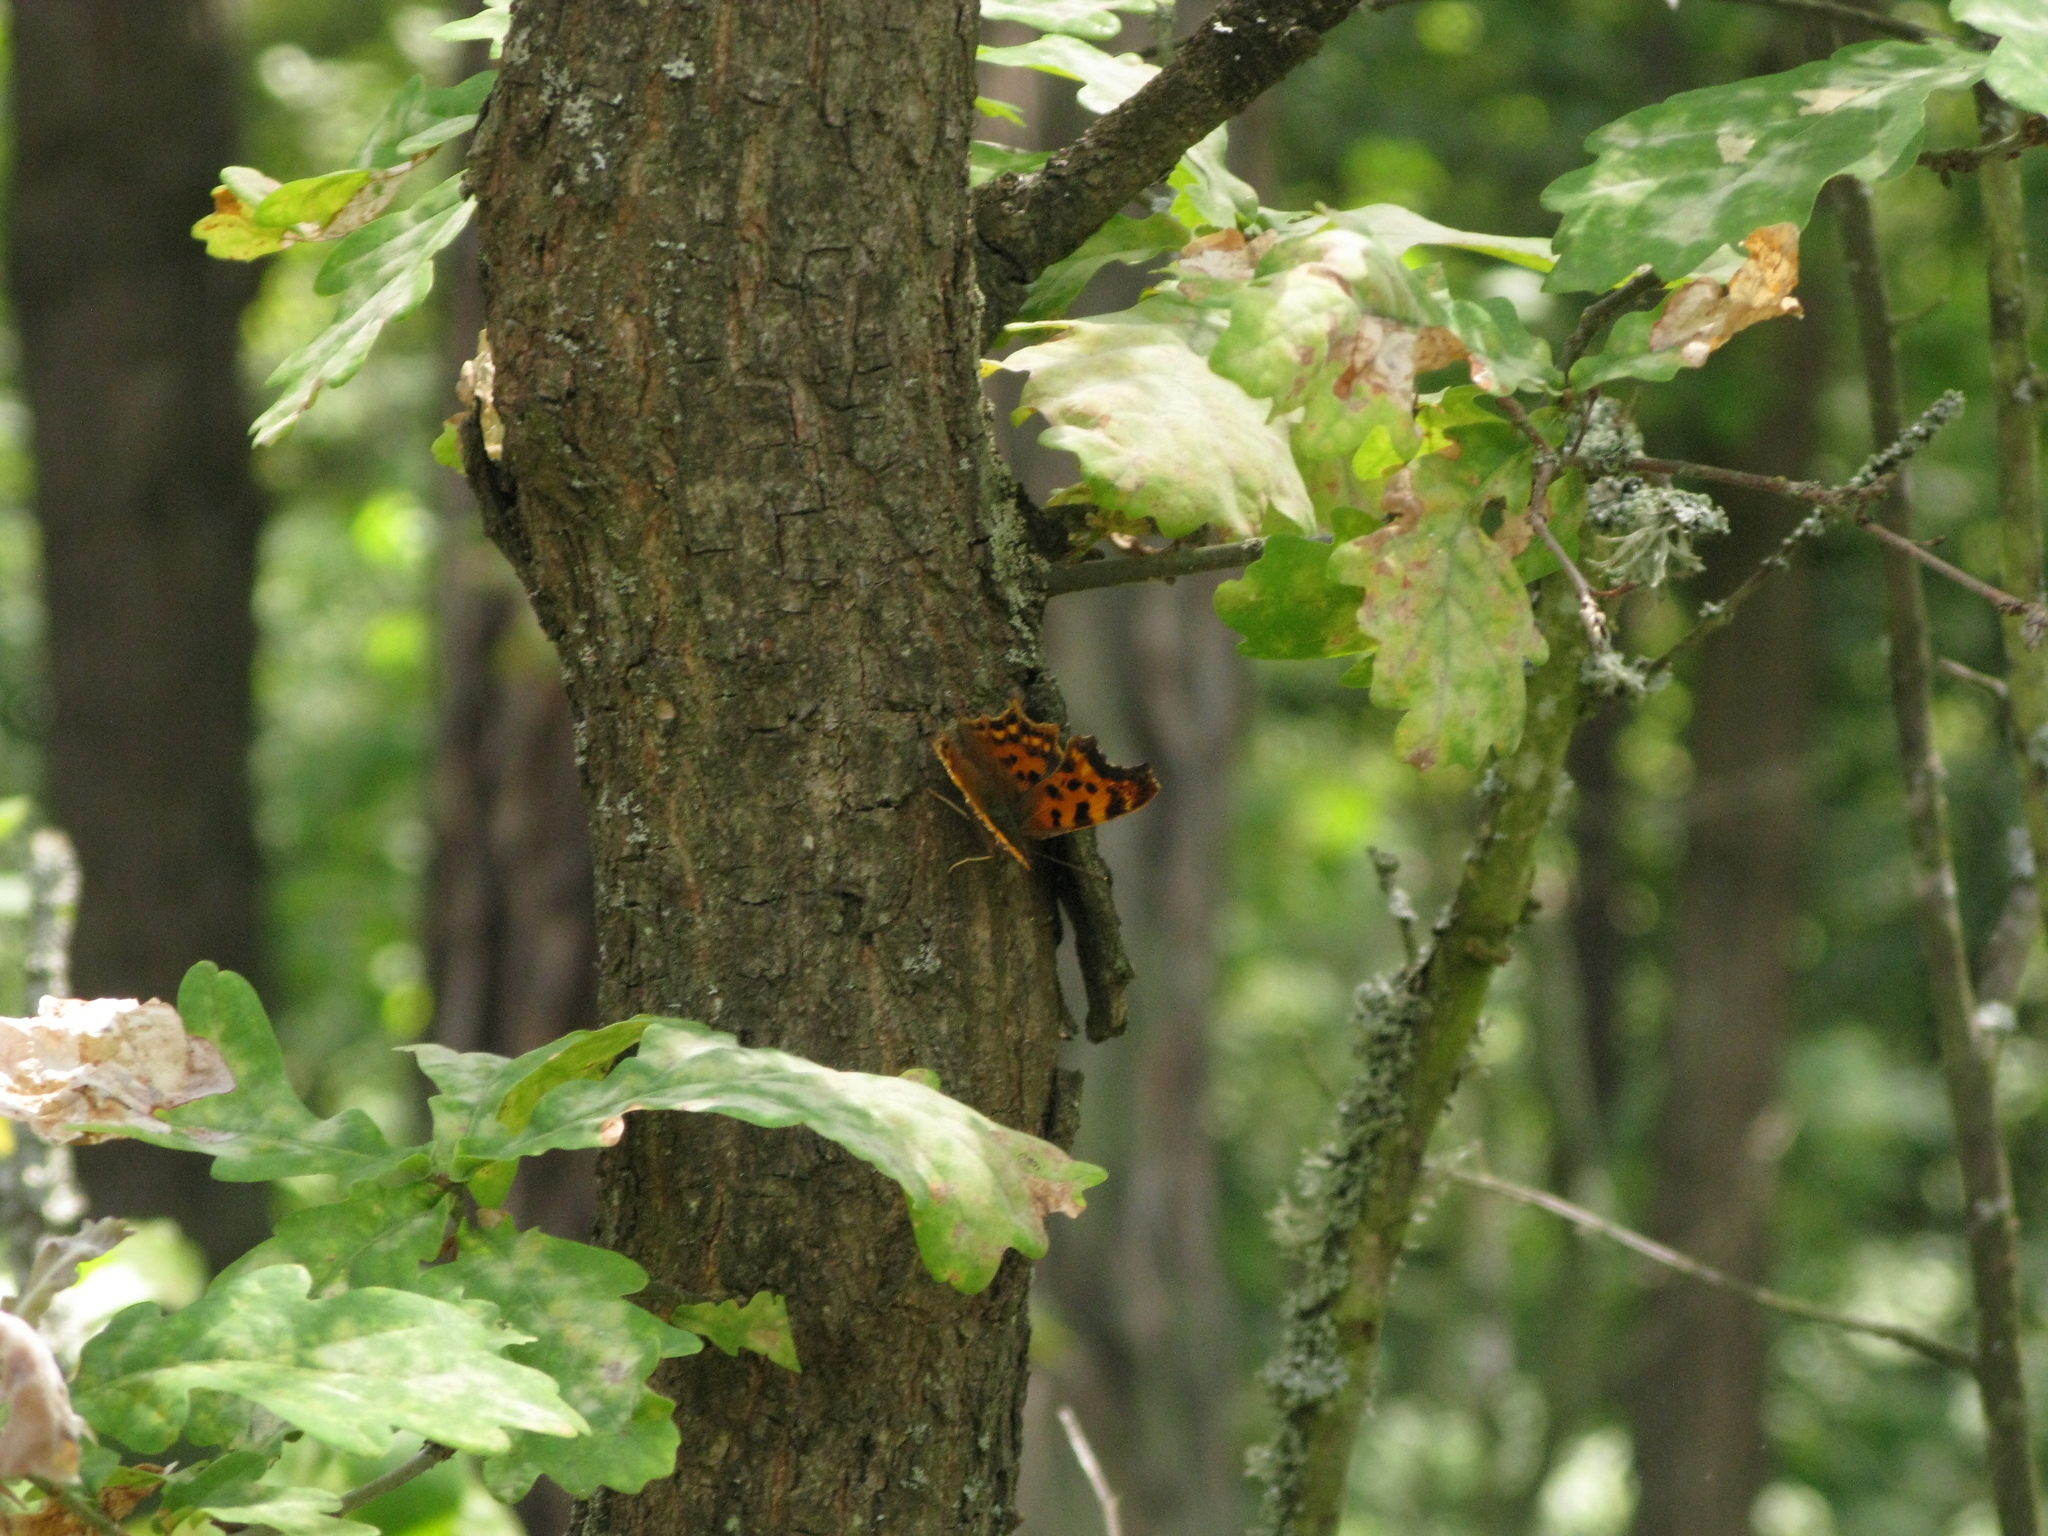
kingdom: Animalia
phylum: Arthropoda
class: Insecta
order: Lepidoptera
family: Nymphalidae
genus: Polygonia
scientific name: Polygonia c-album
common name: Comma
